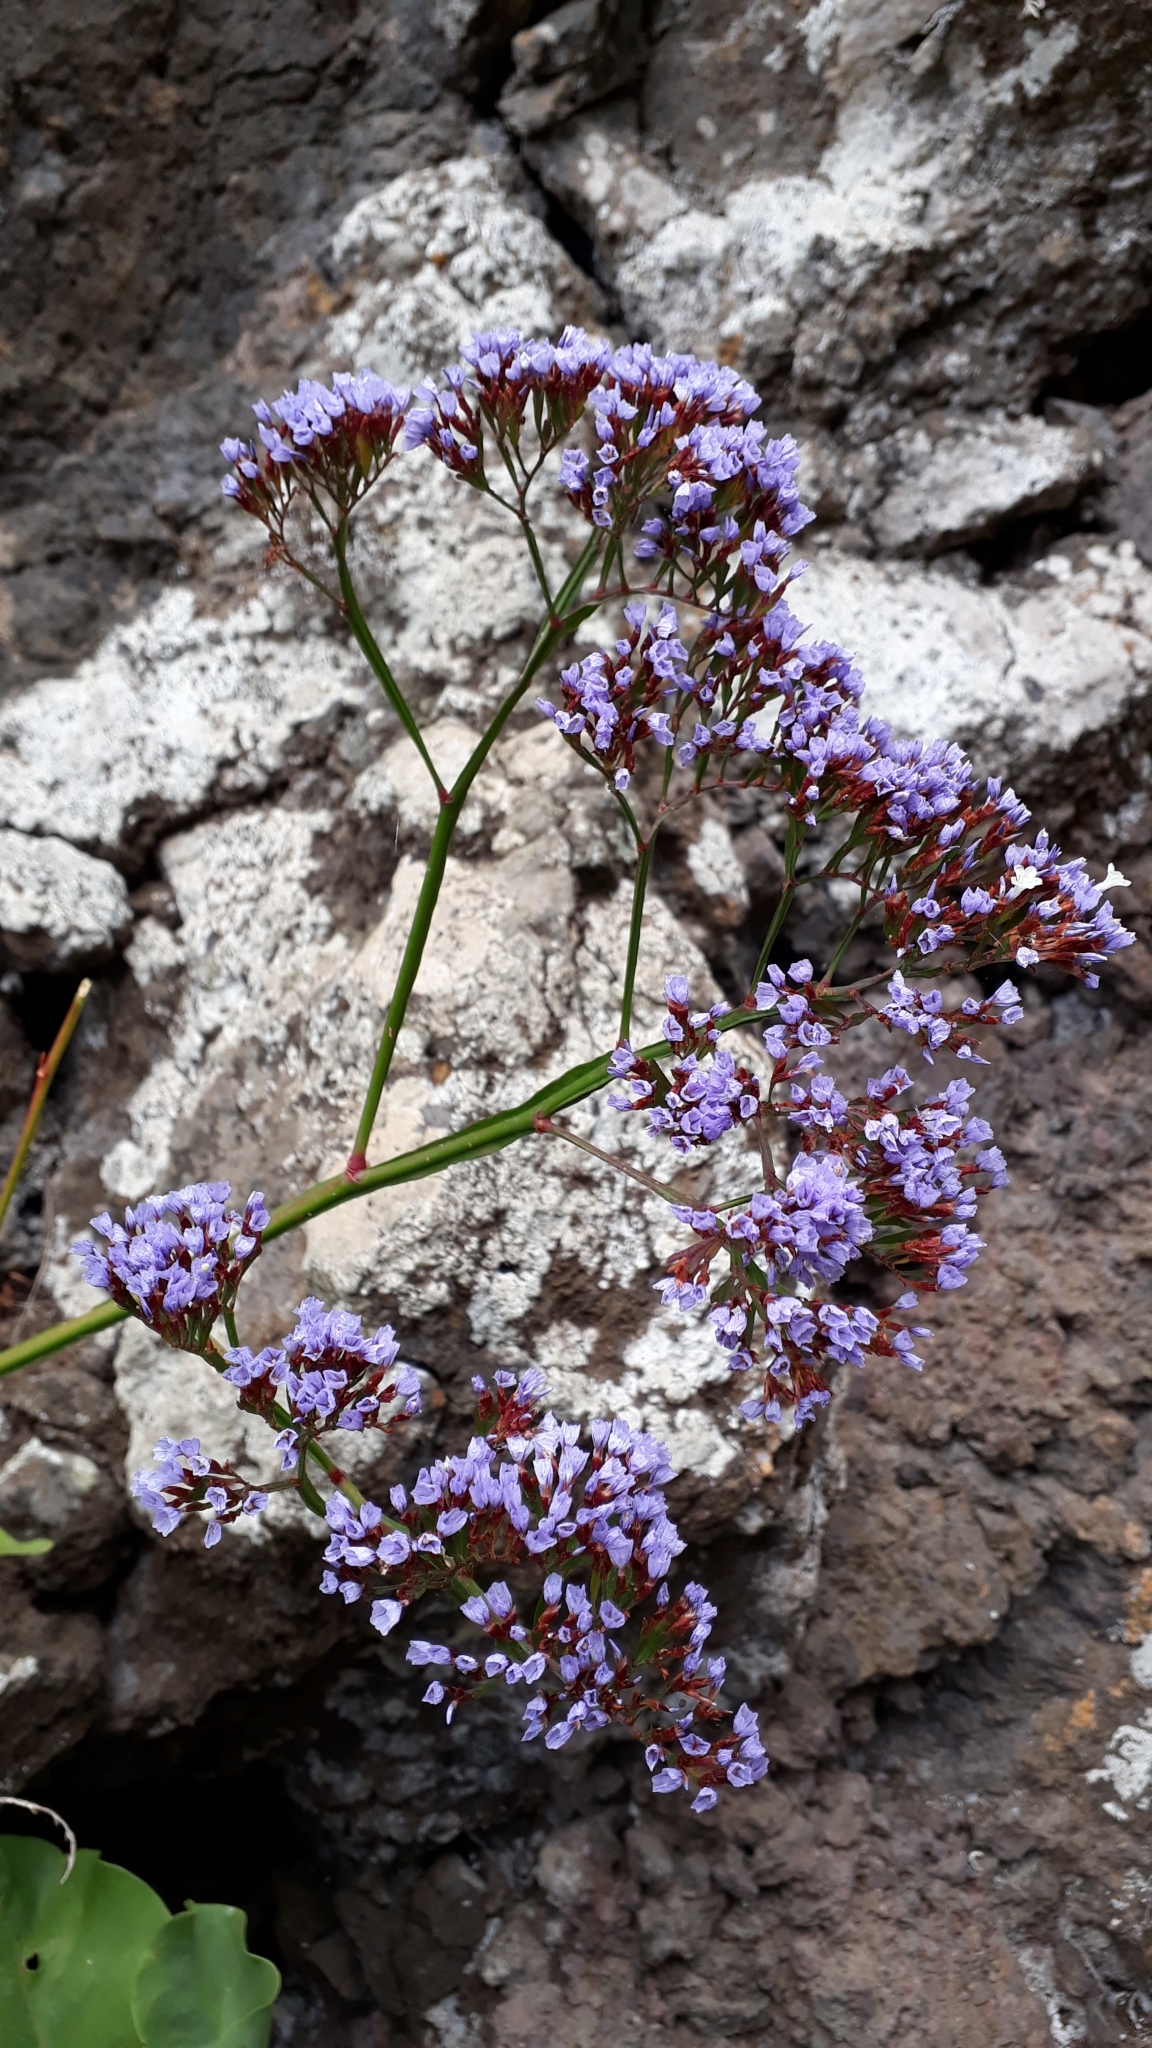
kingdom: Plantae
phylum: Tracheophyta
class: Magnoliopsida
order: Caryophyllales
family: Plumbaginaceae
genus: Limonium
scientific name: Limonium arboreum
